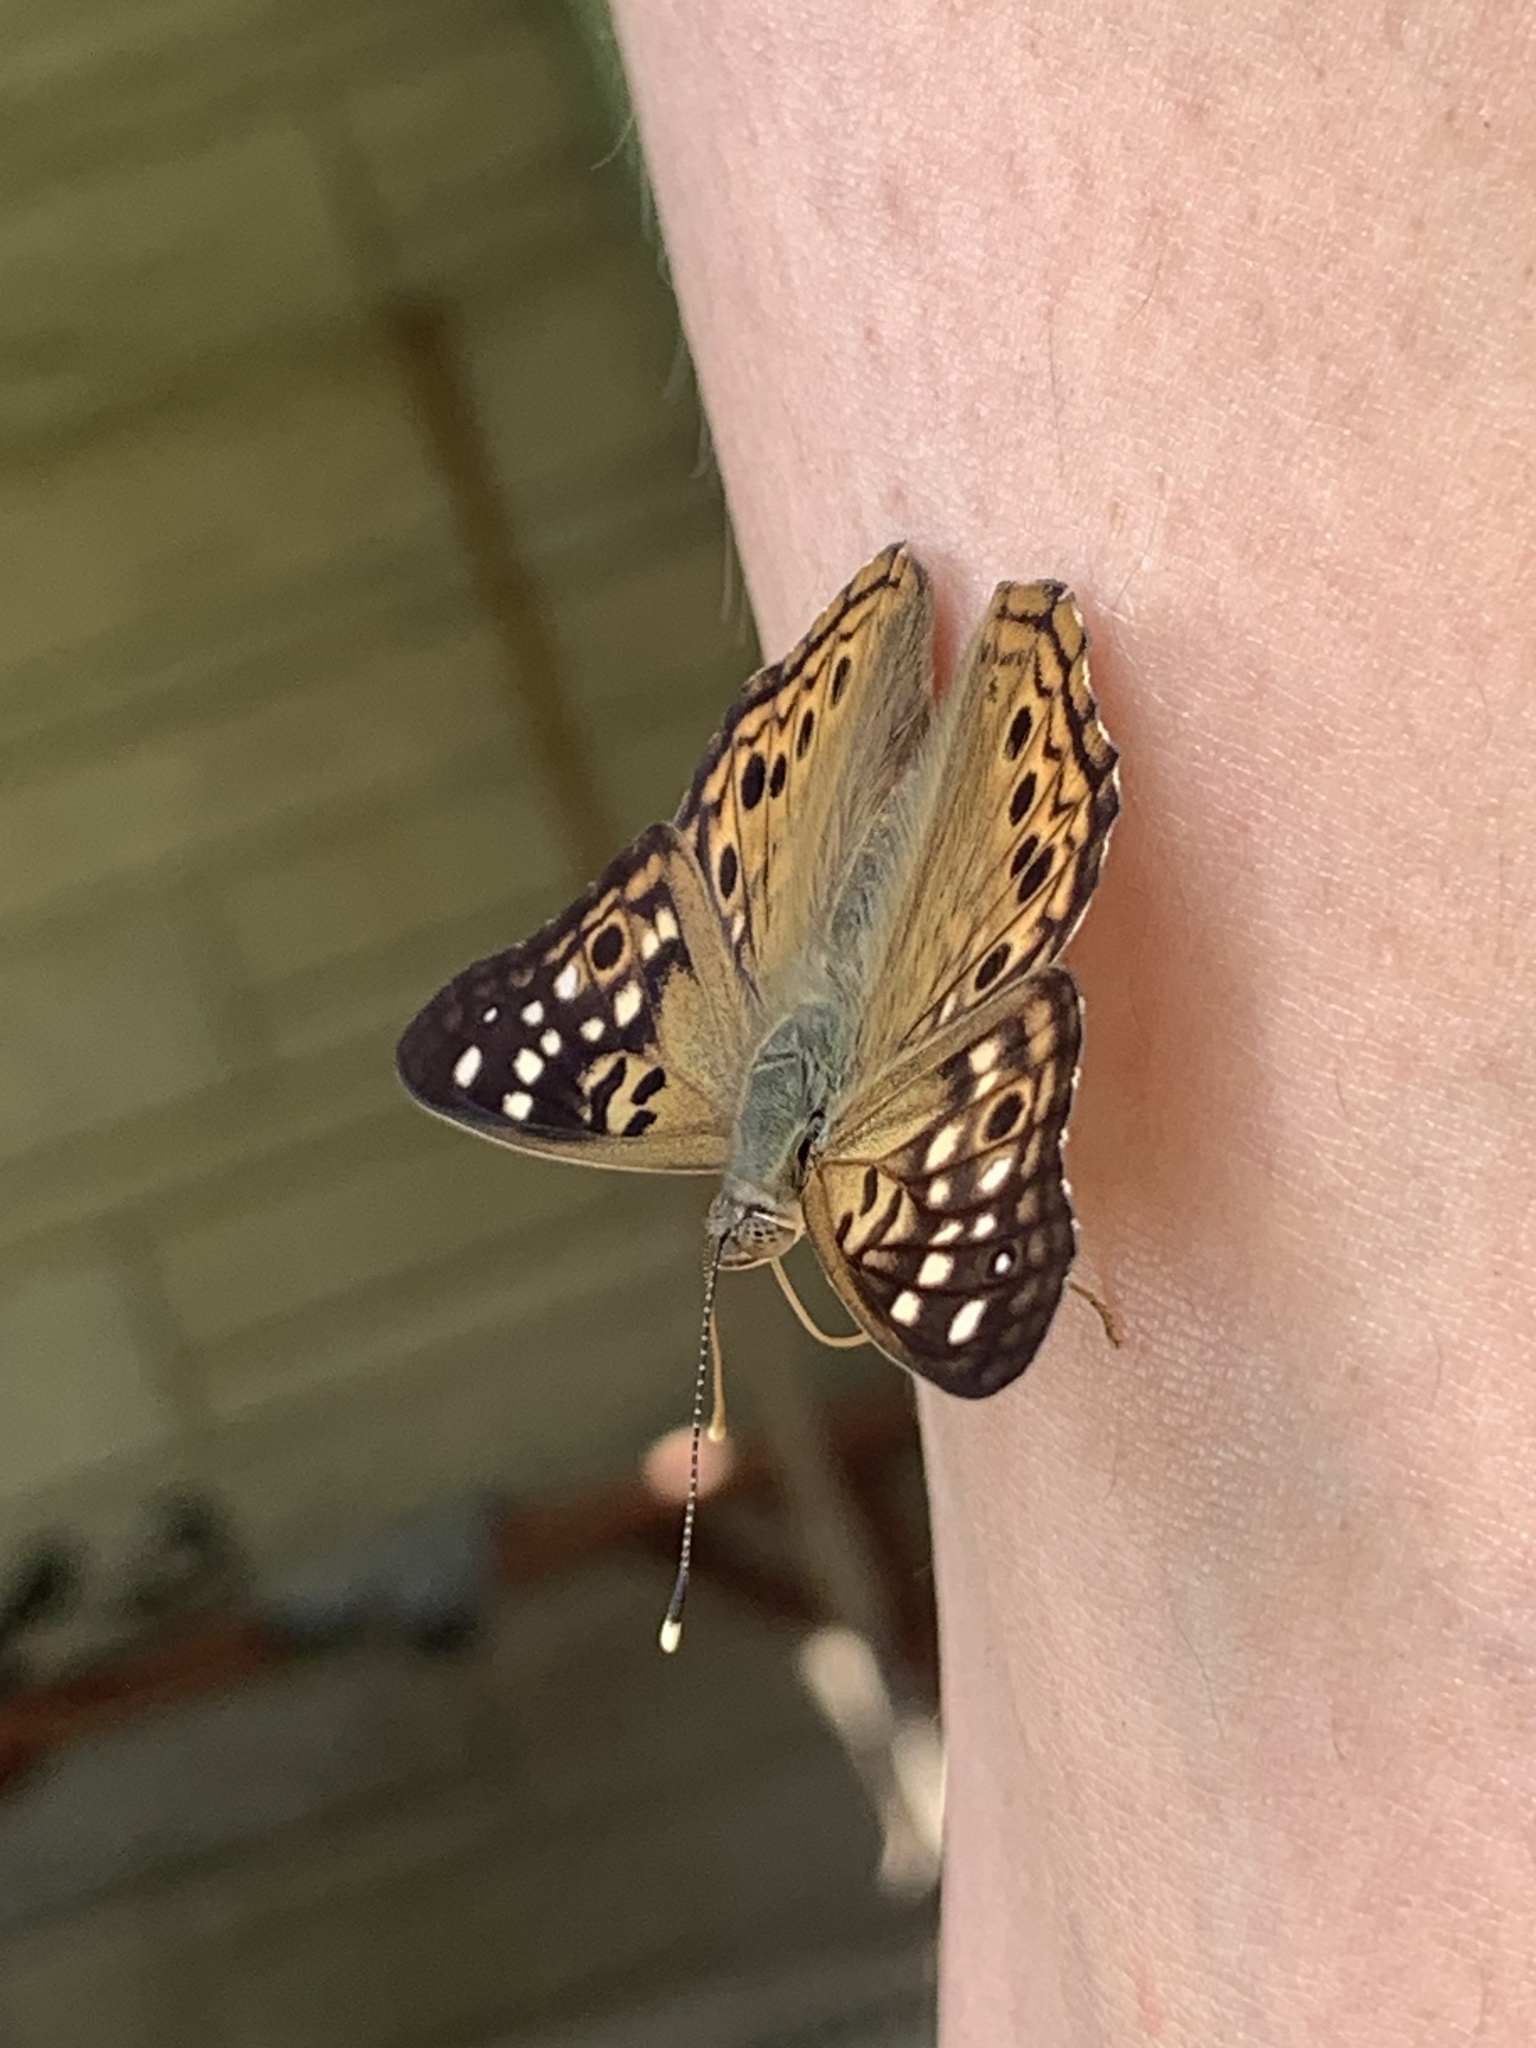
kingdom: Animalia
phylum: Arthropoda
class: Insecta
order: Lepidoptera
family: Nymphalidae
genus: Asterocampa
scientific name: Asterocampa celtis
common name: Hackberry emperor
